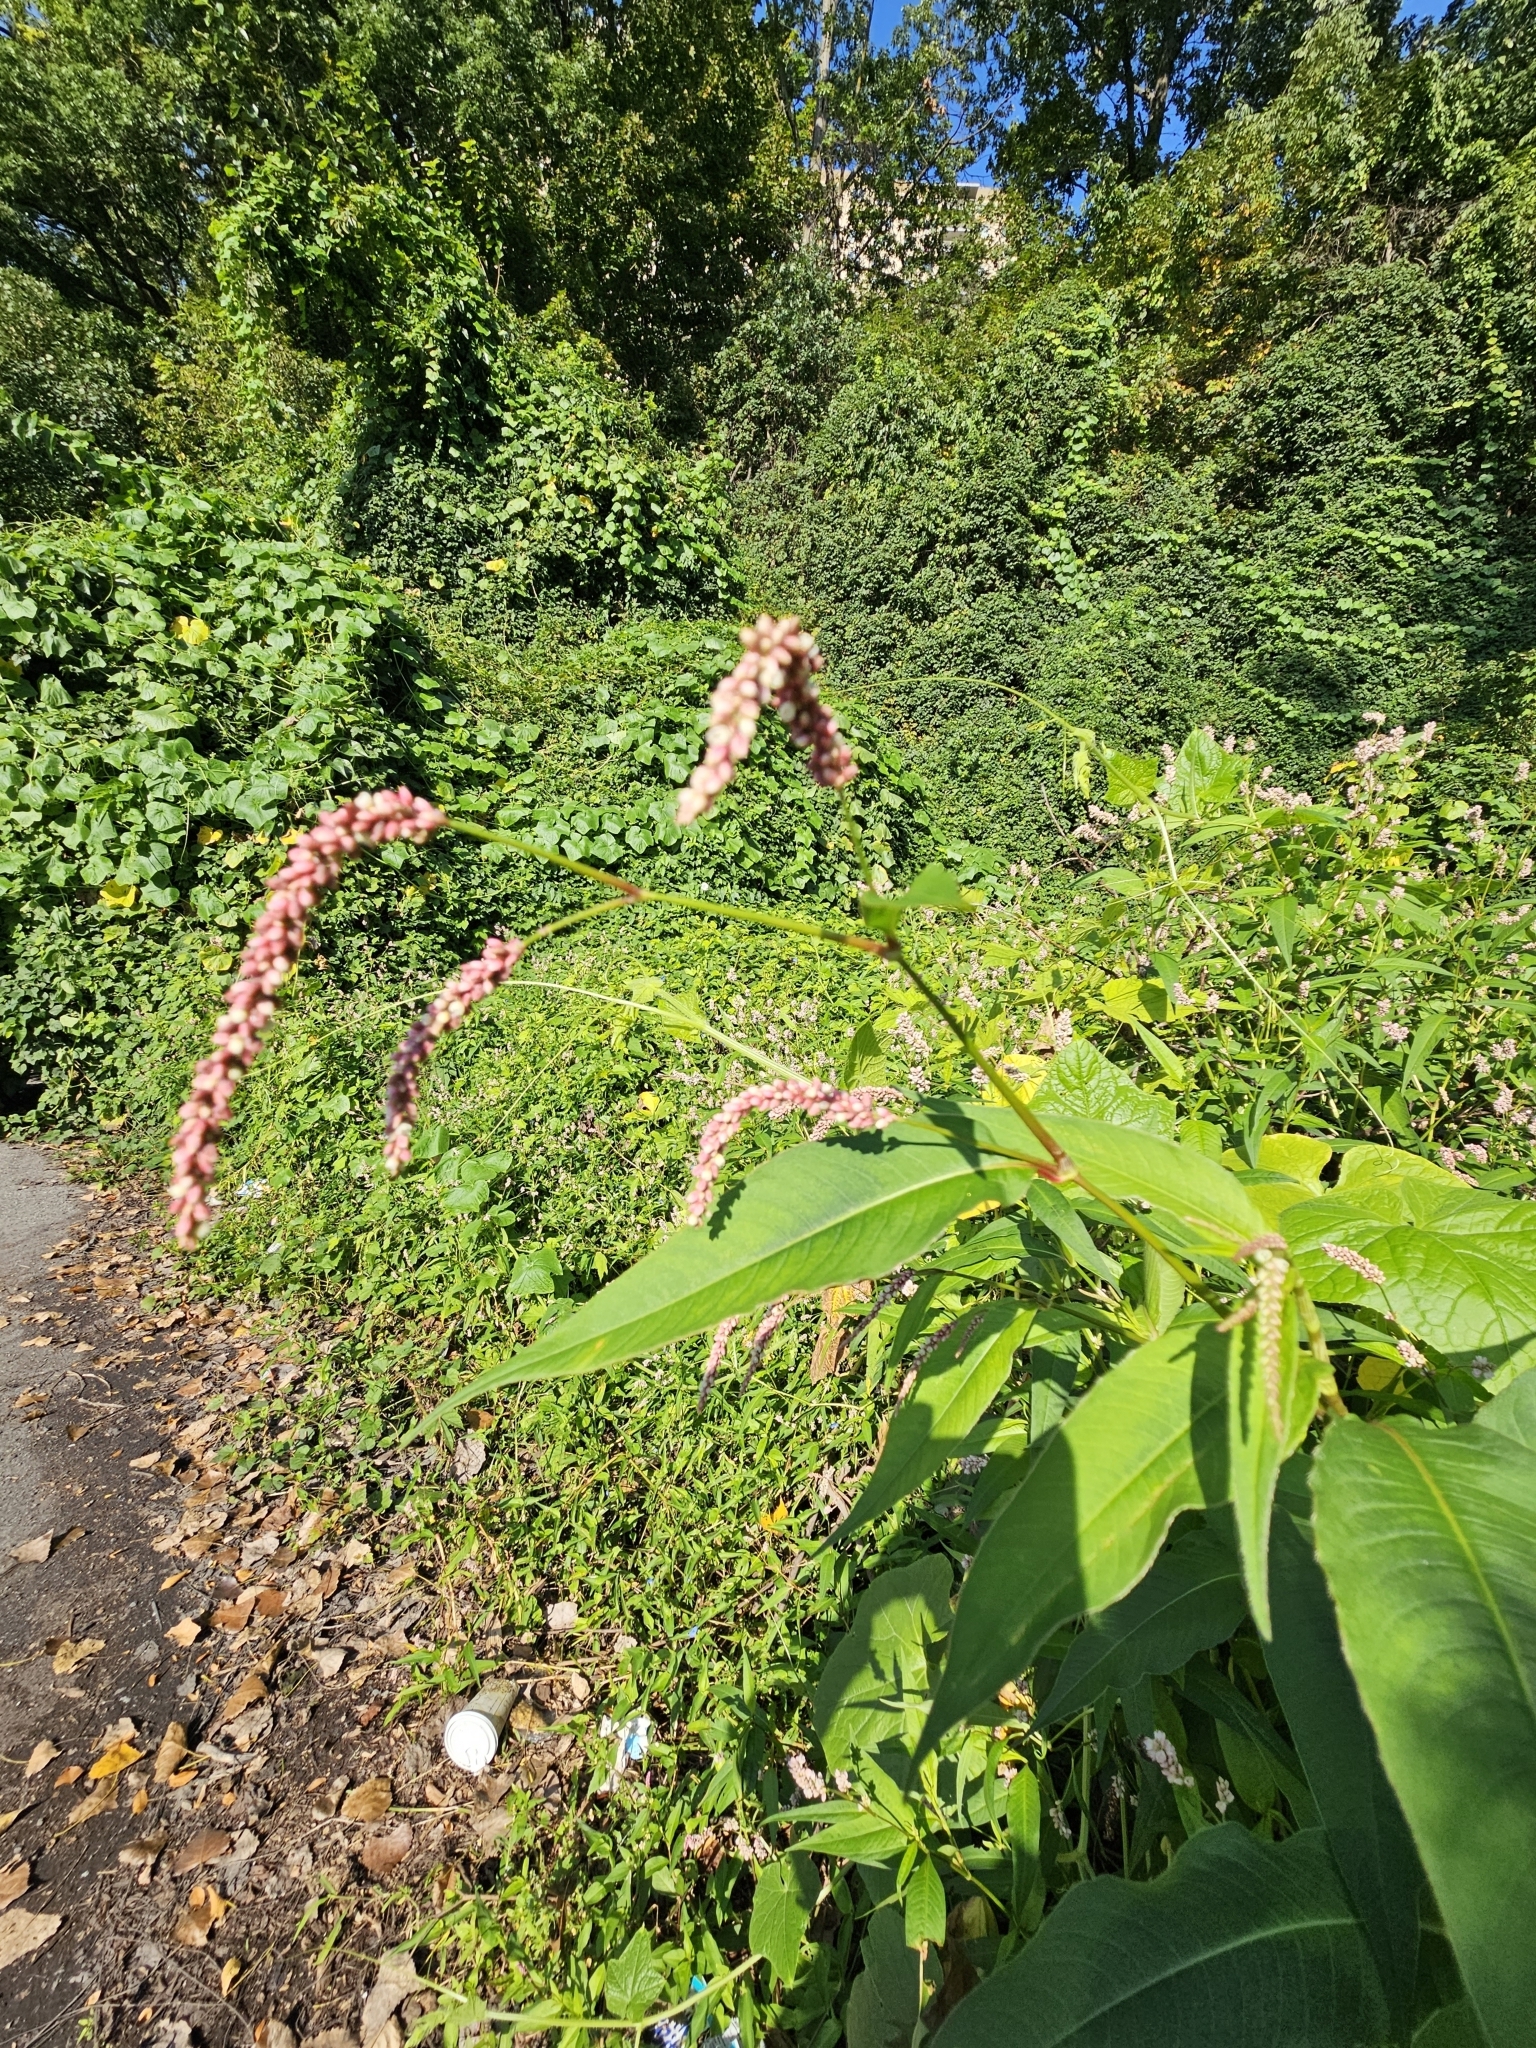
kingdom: Plantae
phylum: Tracheophyta
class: Magnoliopsida
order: Caryophyllales
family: Polygonaceae
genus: Persicaria
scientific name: Persicaria extremiorientalis
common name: Far-eastern smartweed
